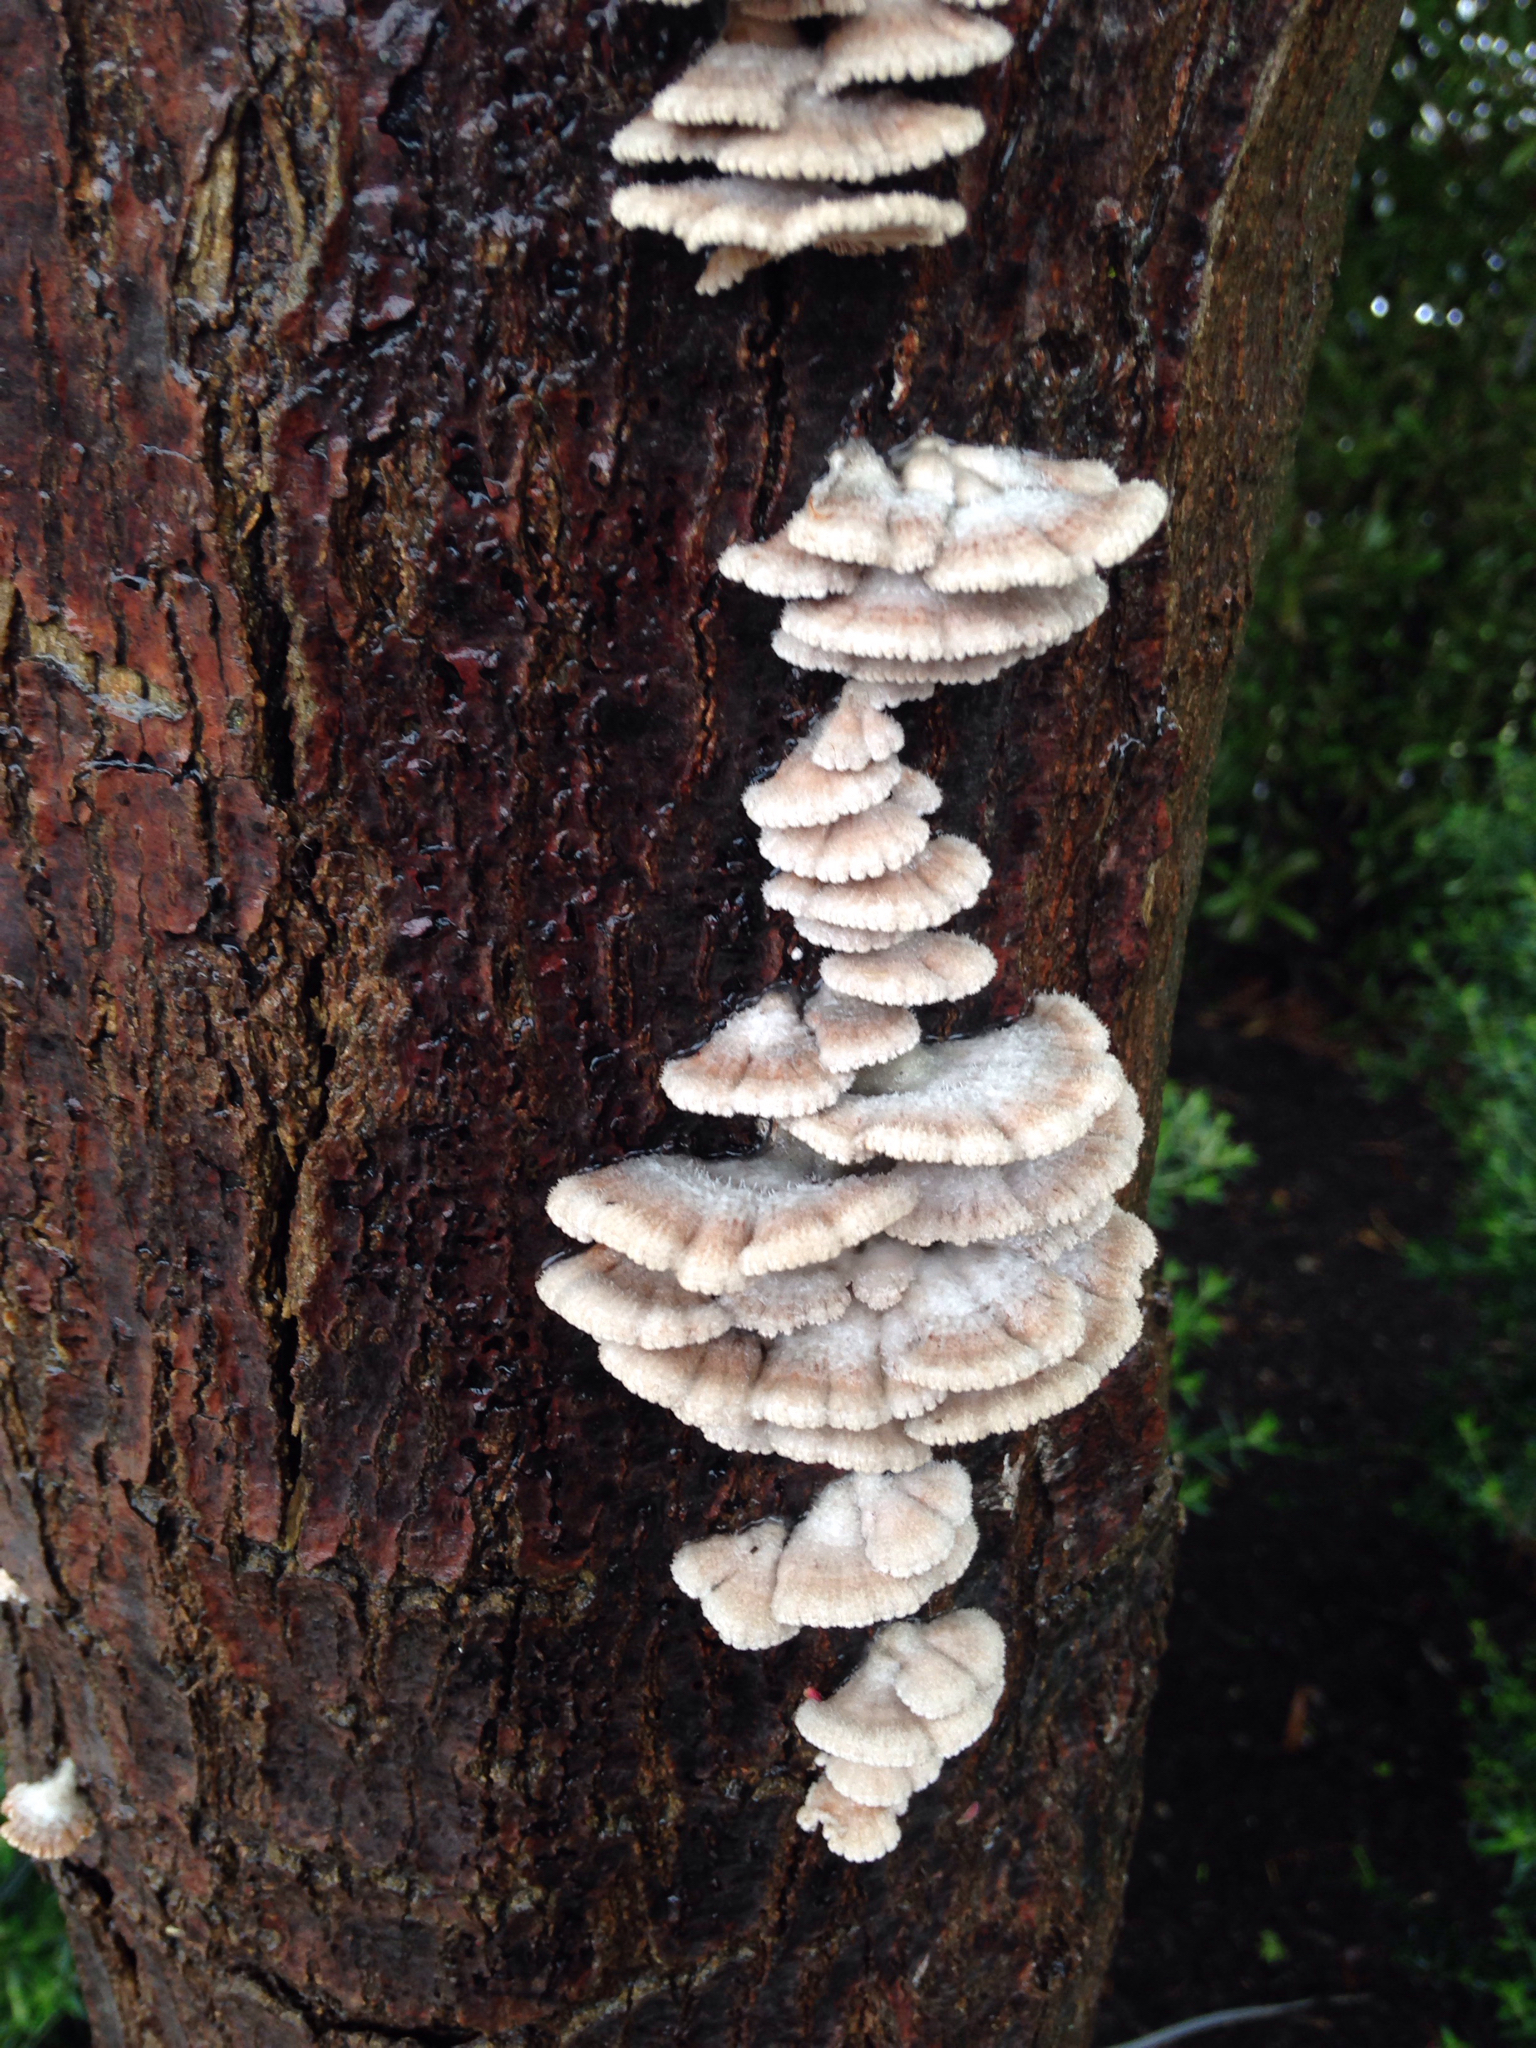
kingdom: Fungi
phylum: Basidiomycota
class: Agaricomycetes
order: Agaricales
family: Schizophyllaceae
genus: Schizophyllum
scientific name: Schizophyllum commune
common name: Common porecrust
